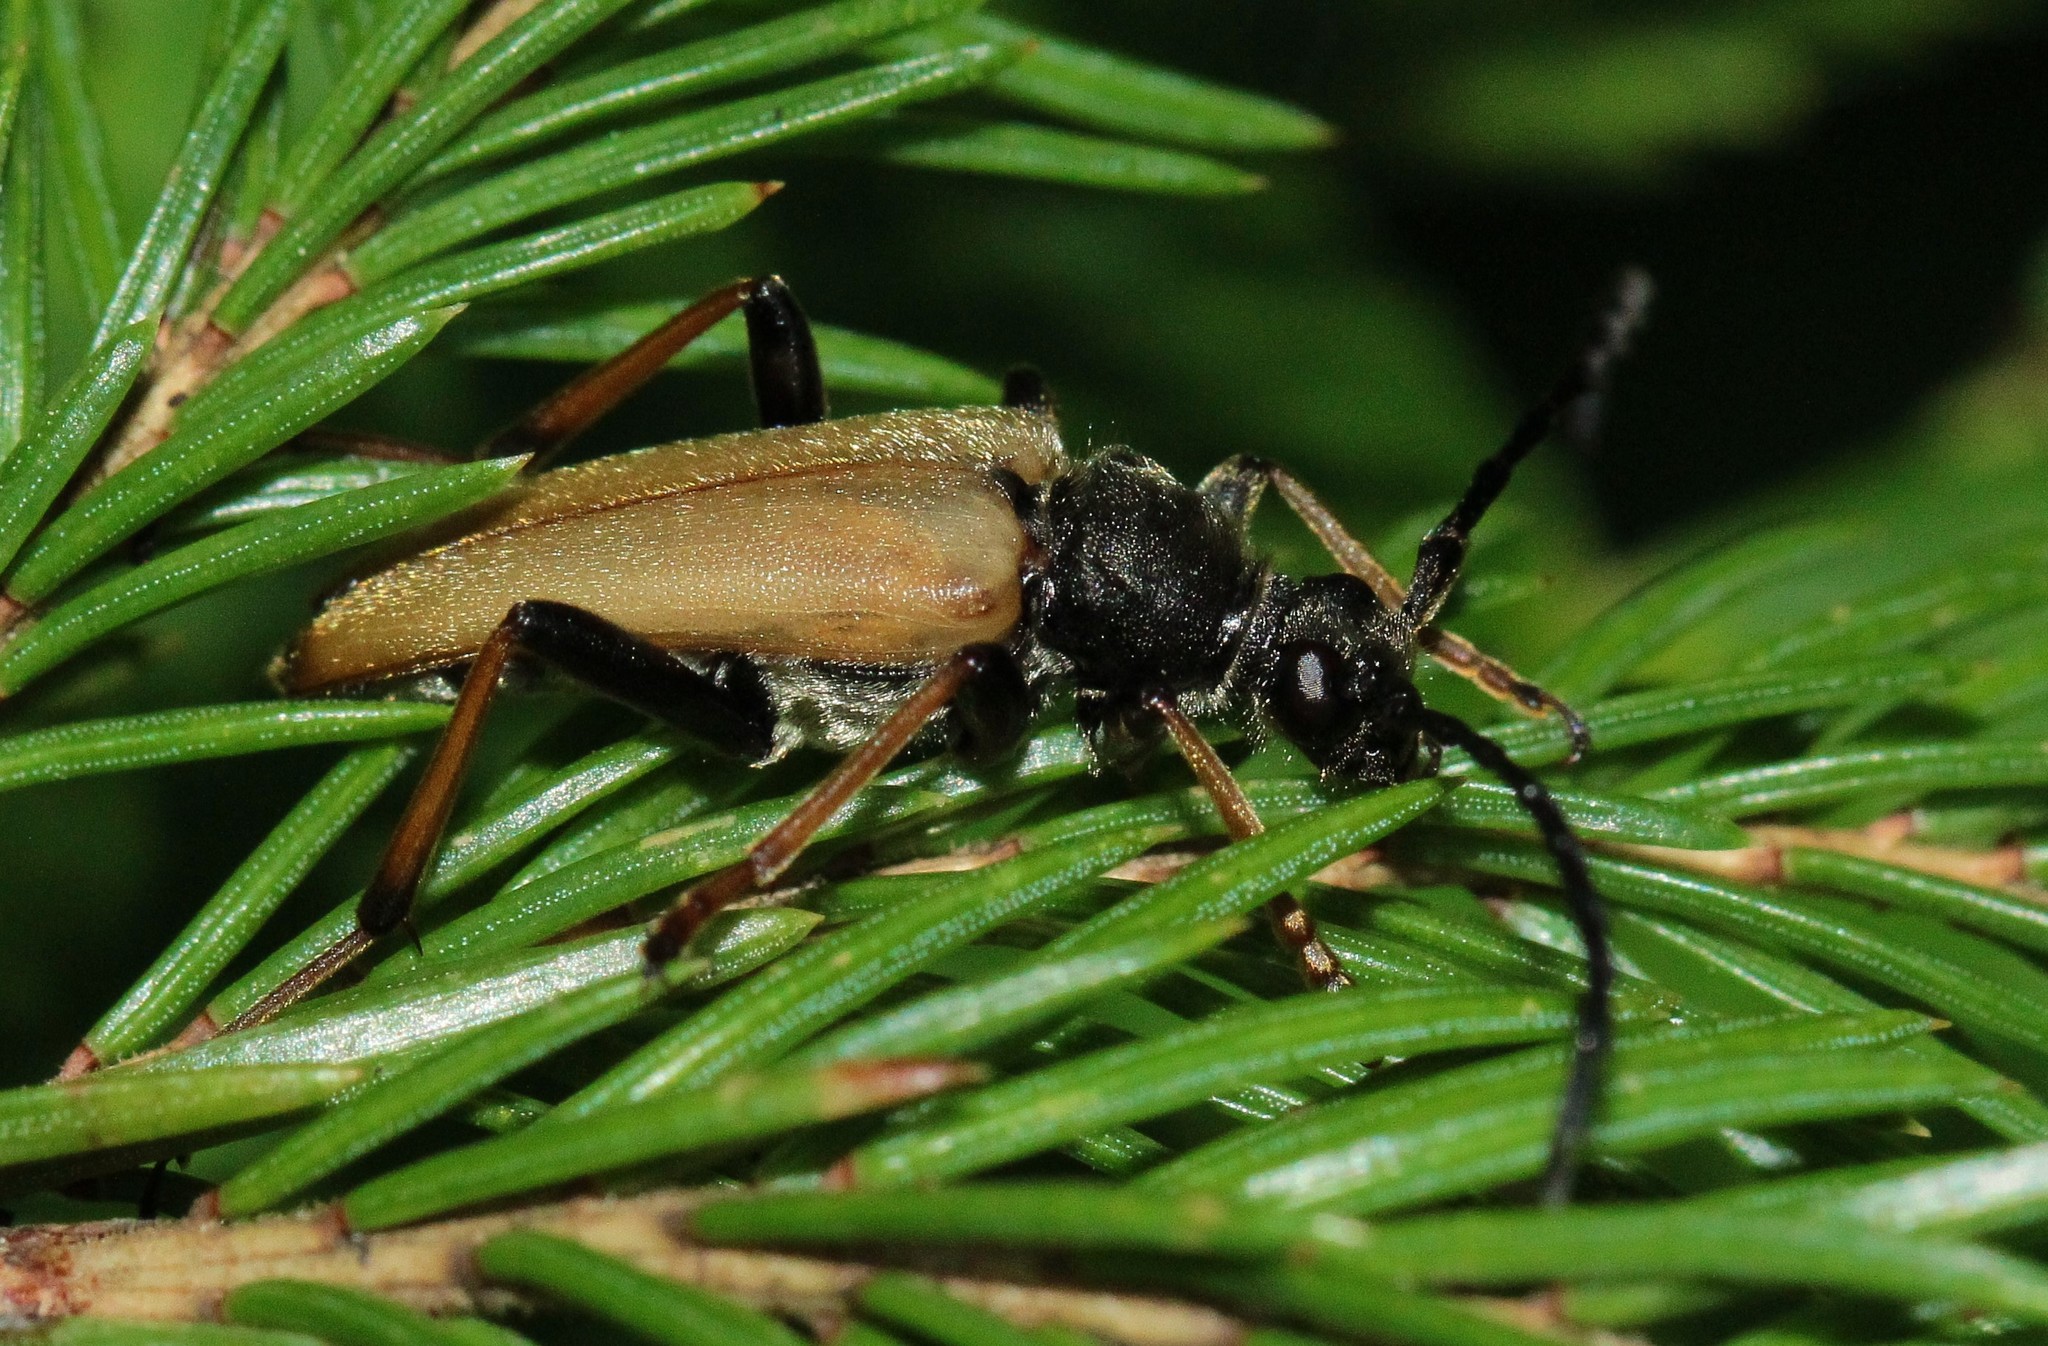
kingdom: Animalia
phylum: Arthropoda
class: Insecta
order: Coleoptera
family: Cerambycidae
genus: Stictoleptura
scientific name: Stictoleptura rubra
